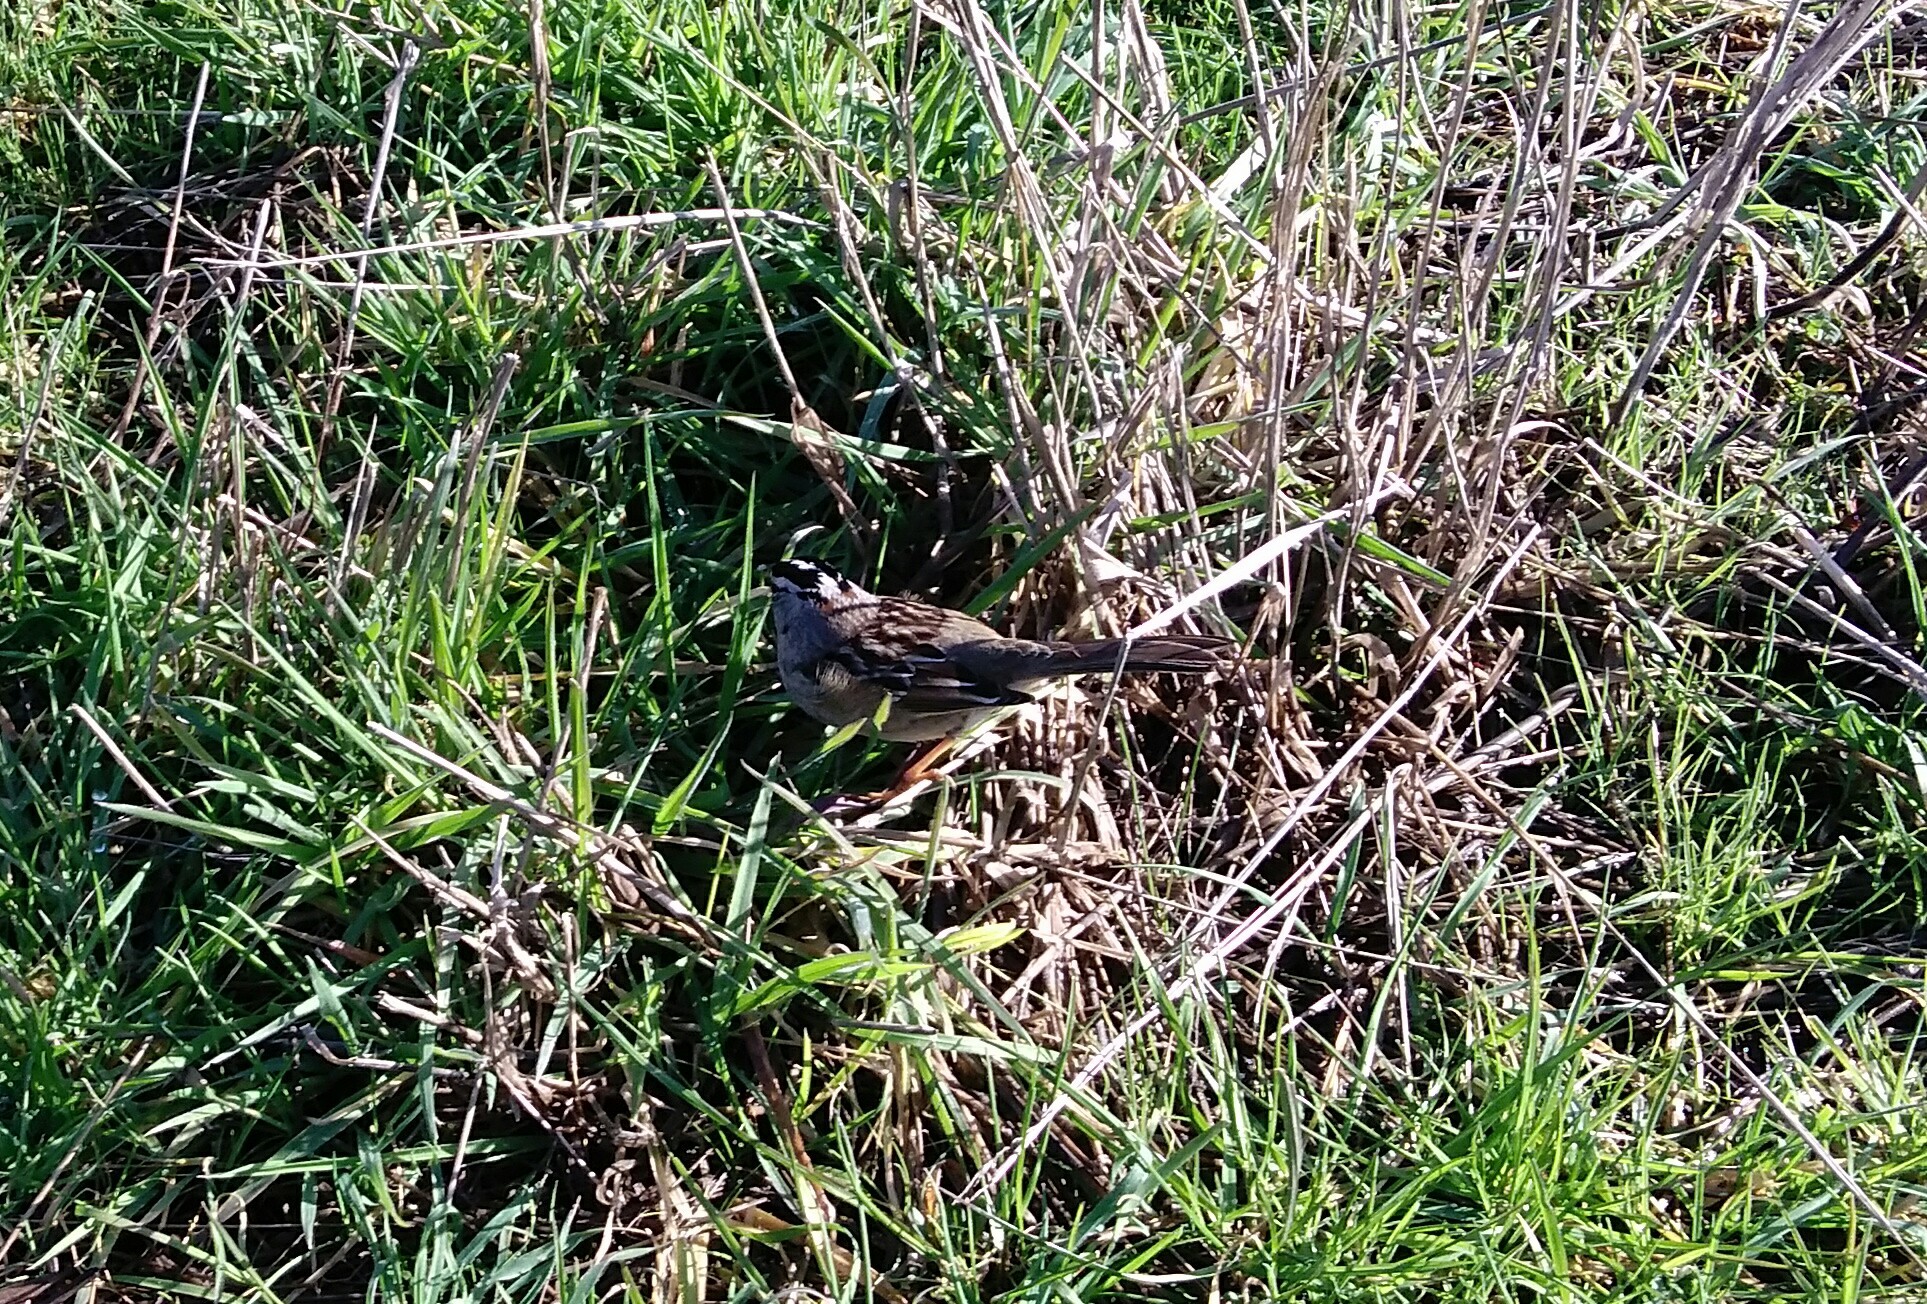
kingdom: Animalia
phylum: Chordata
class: Aves
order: Passeriformes
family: Passerellidae
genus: Zonotrichia
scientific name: Zonotrichia leucophrys
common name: White-crowned sparrow
